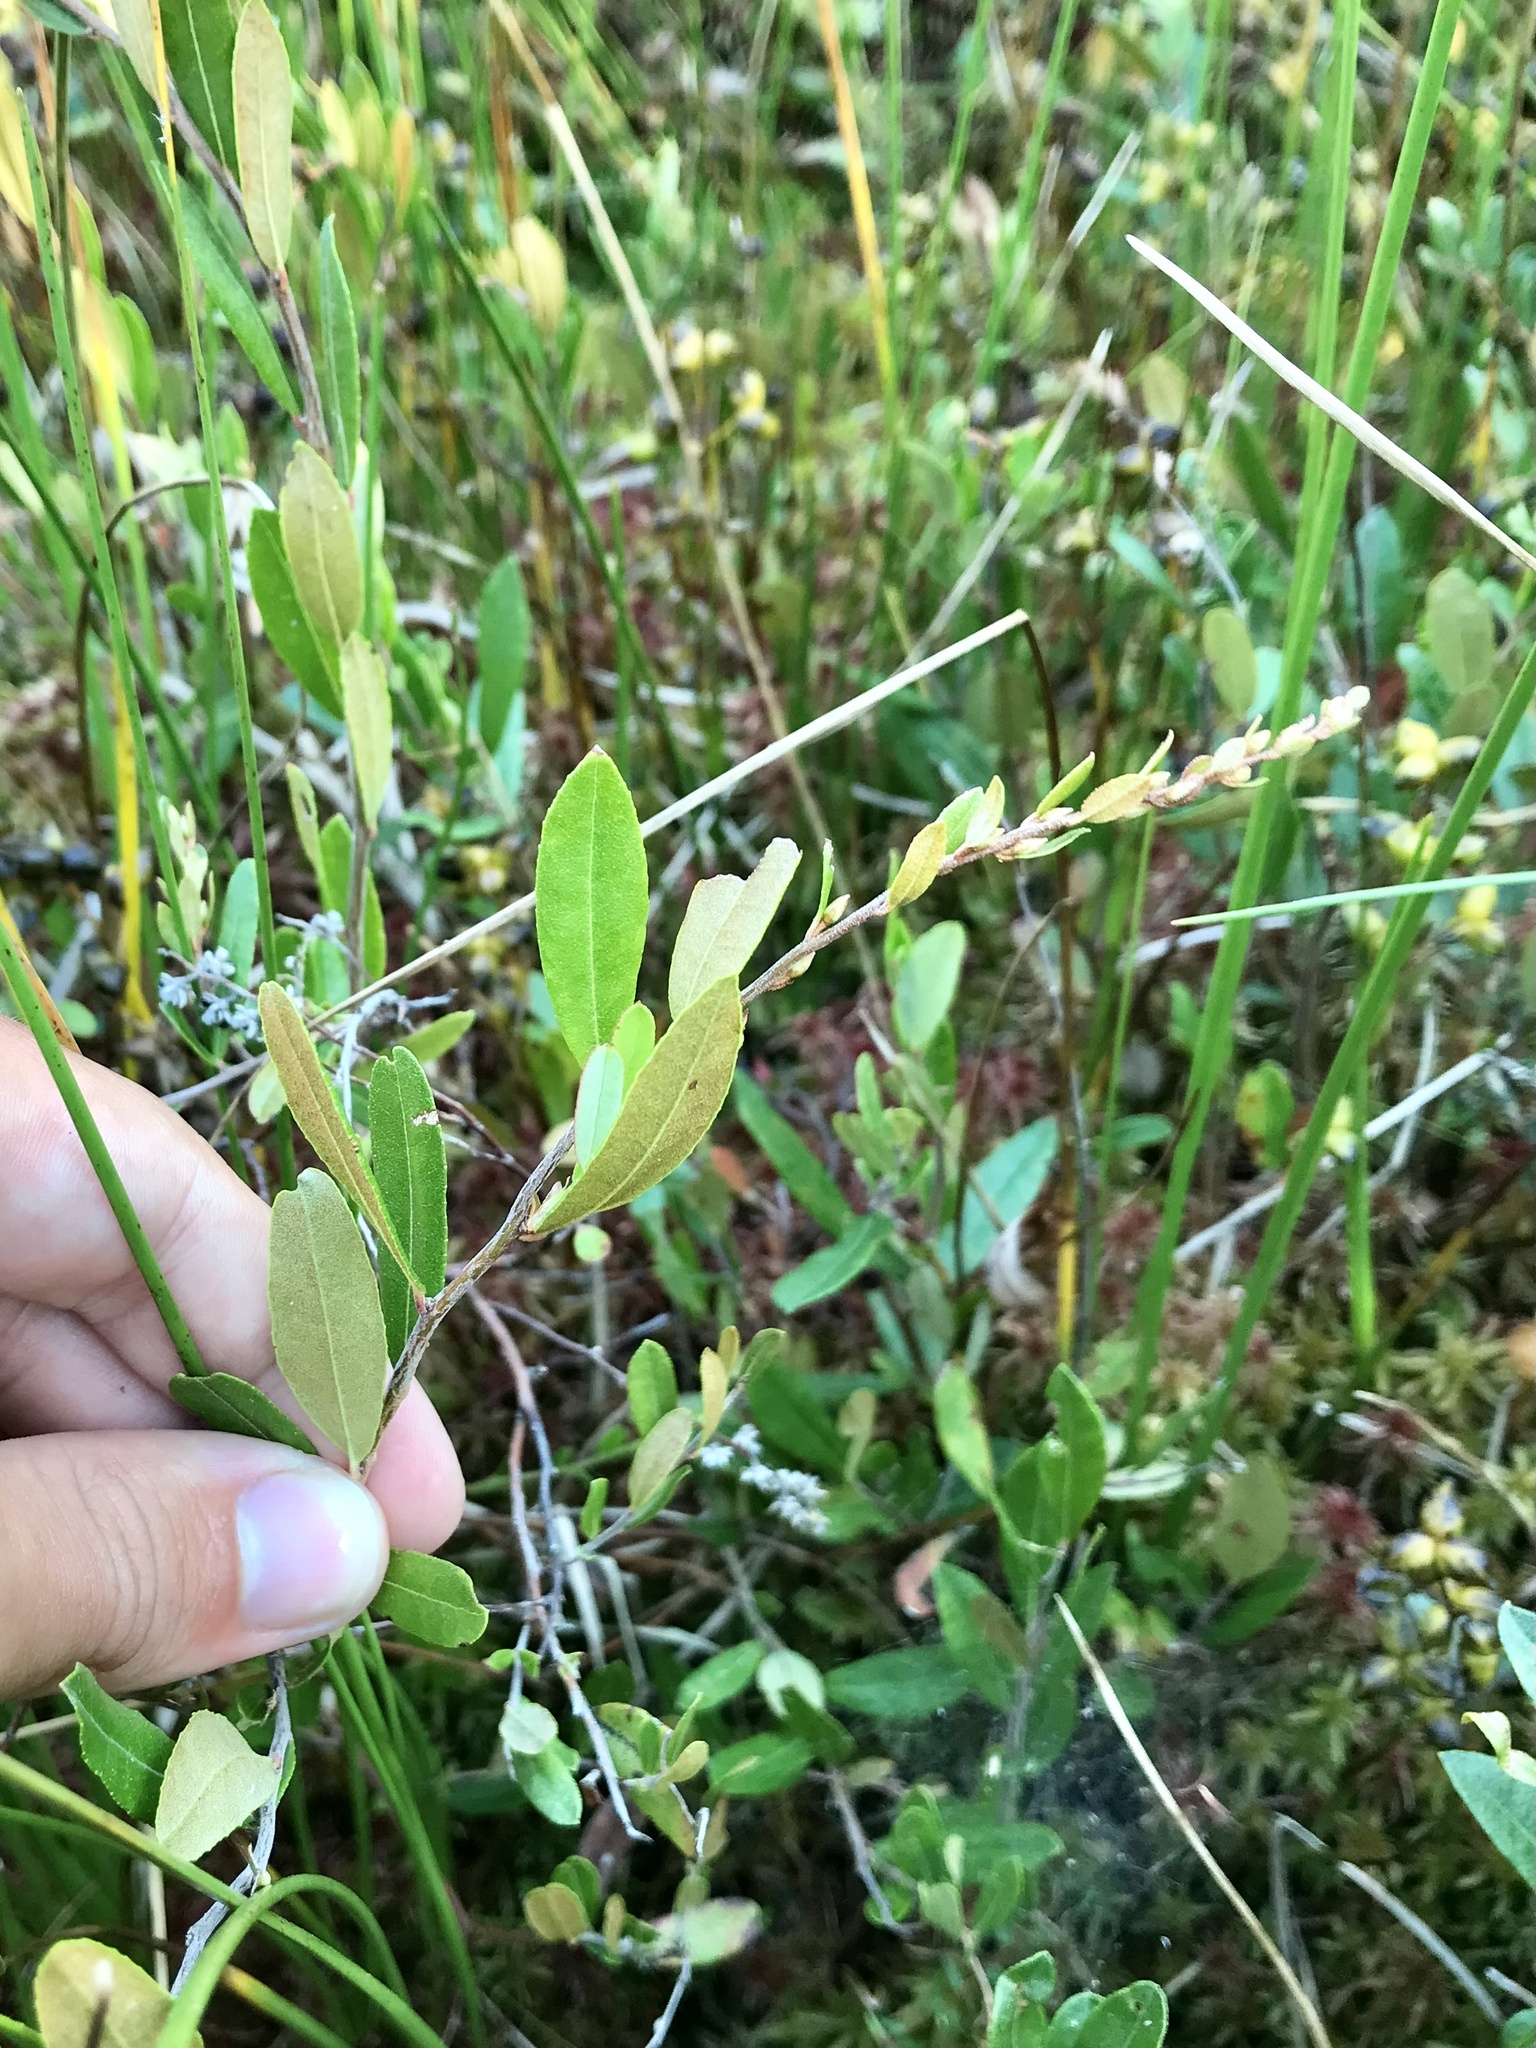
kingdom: Plantae
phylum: Tracheophyta
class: Magnoliopsida
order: Ericales
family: Ericaceae
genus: Chamaedaphne
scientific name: Chamaedaphne calyculata
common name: Leatherleaf
